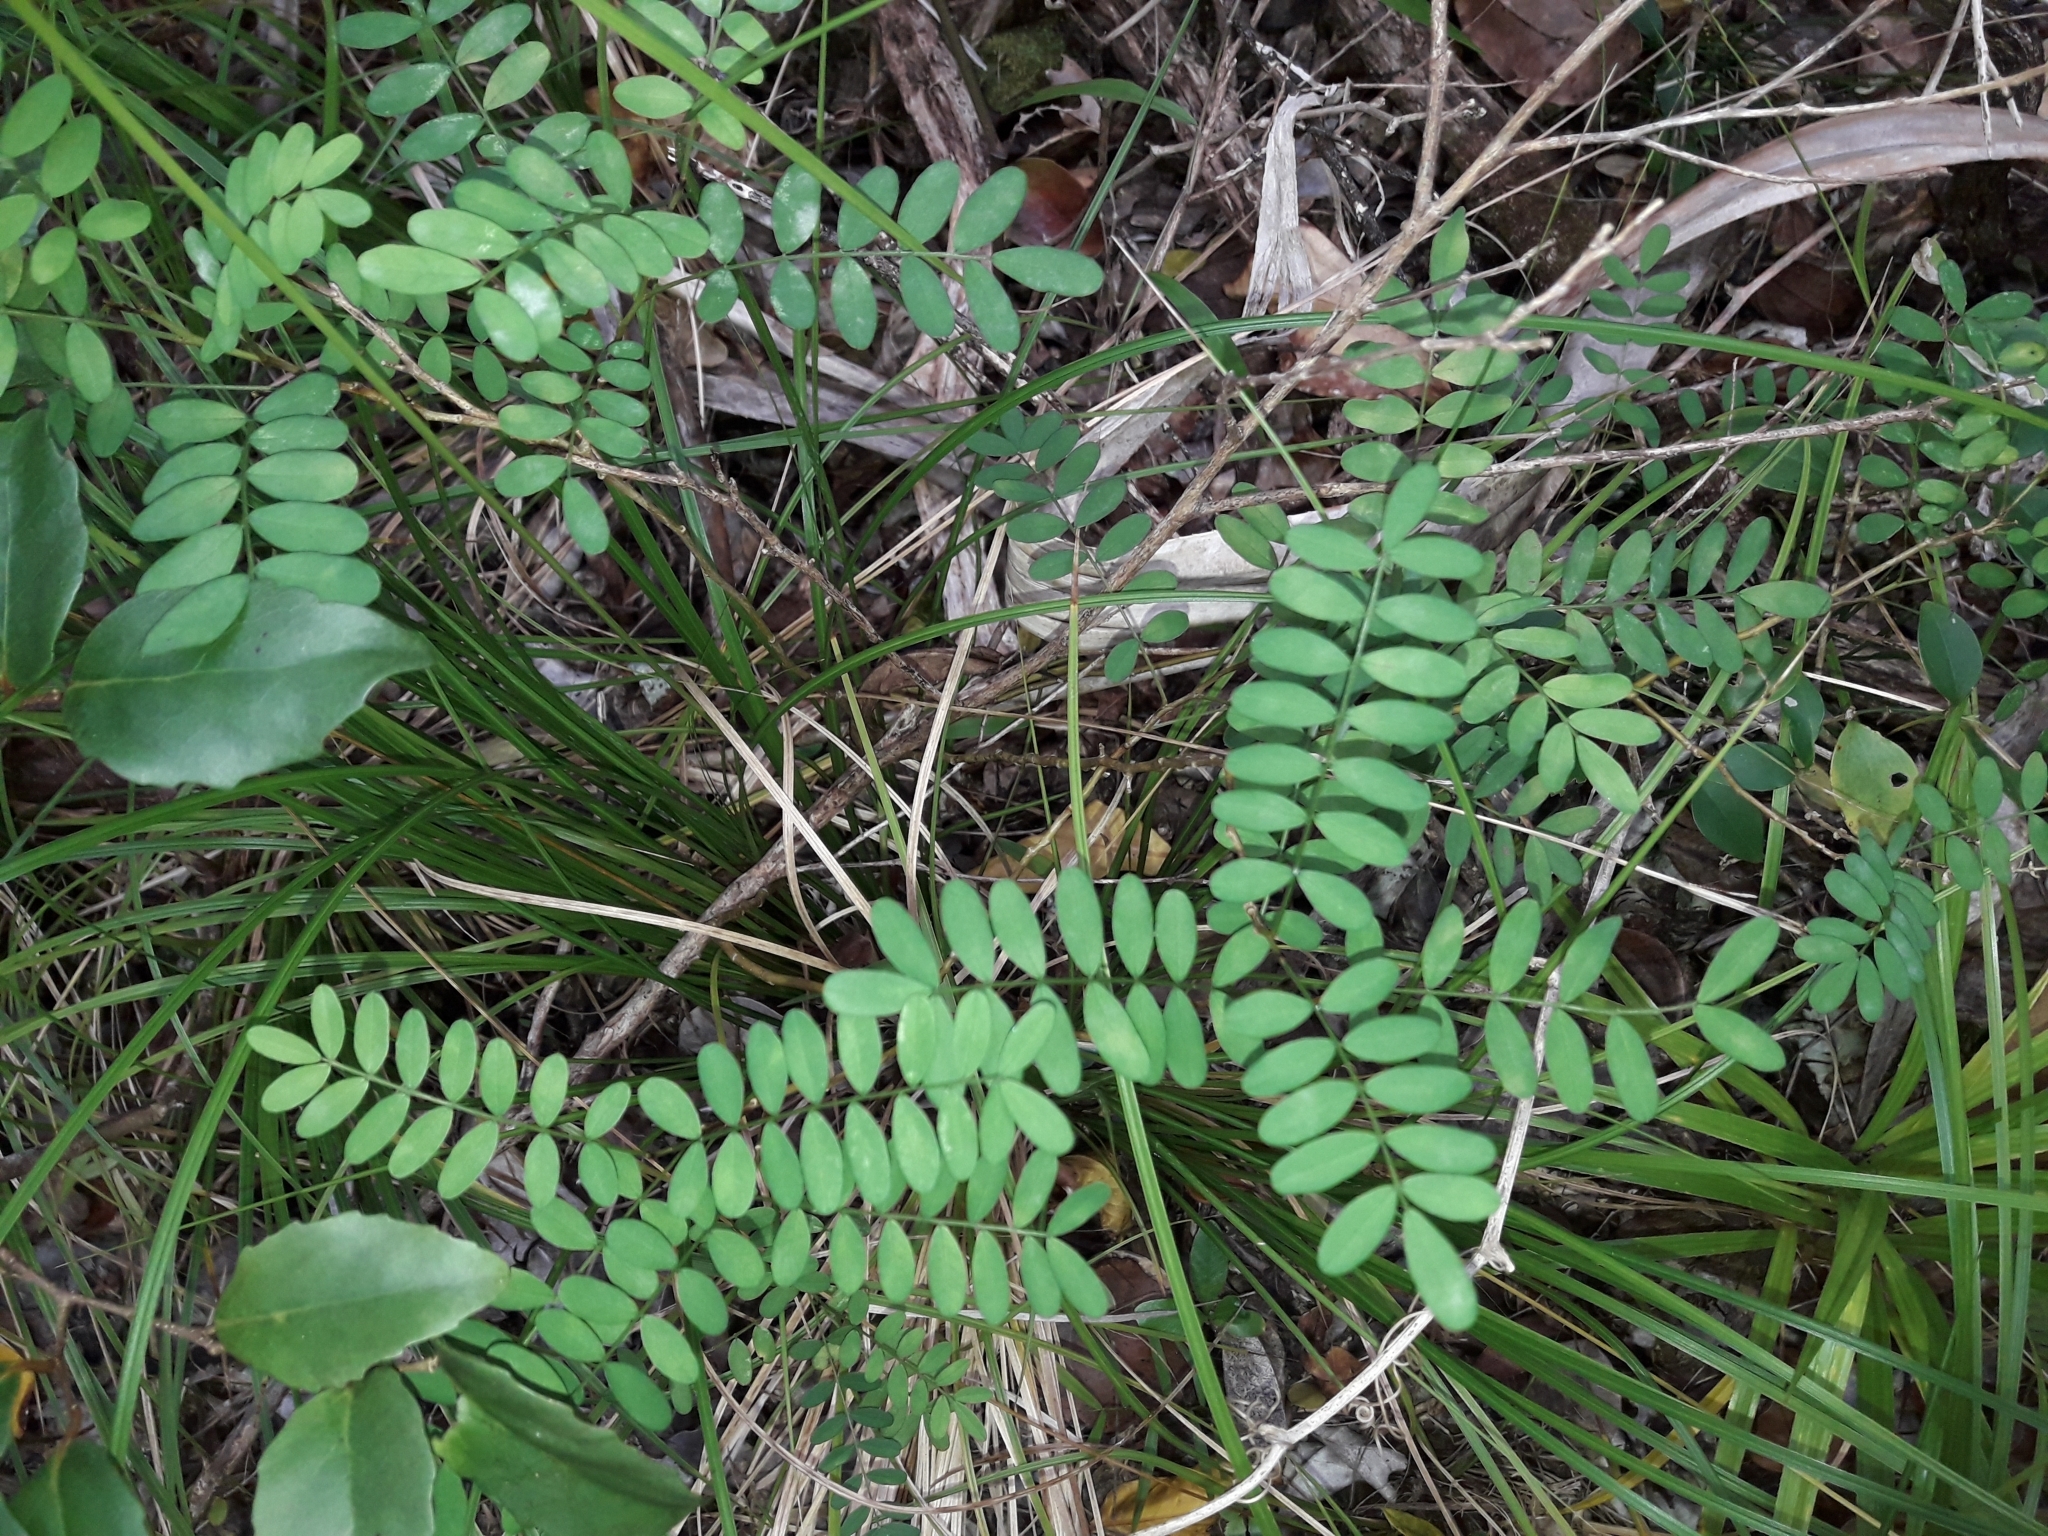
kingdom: Plantae
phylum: Tracheophyta
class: Magnoliopsida
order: Fabales
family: Fabaceae
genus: Sophora
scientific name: Sophora howinsula
